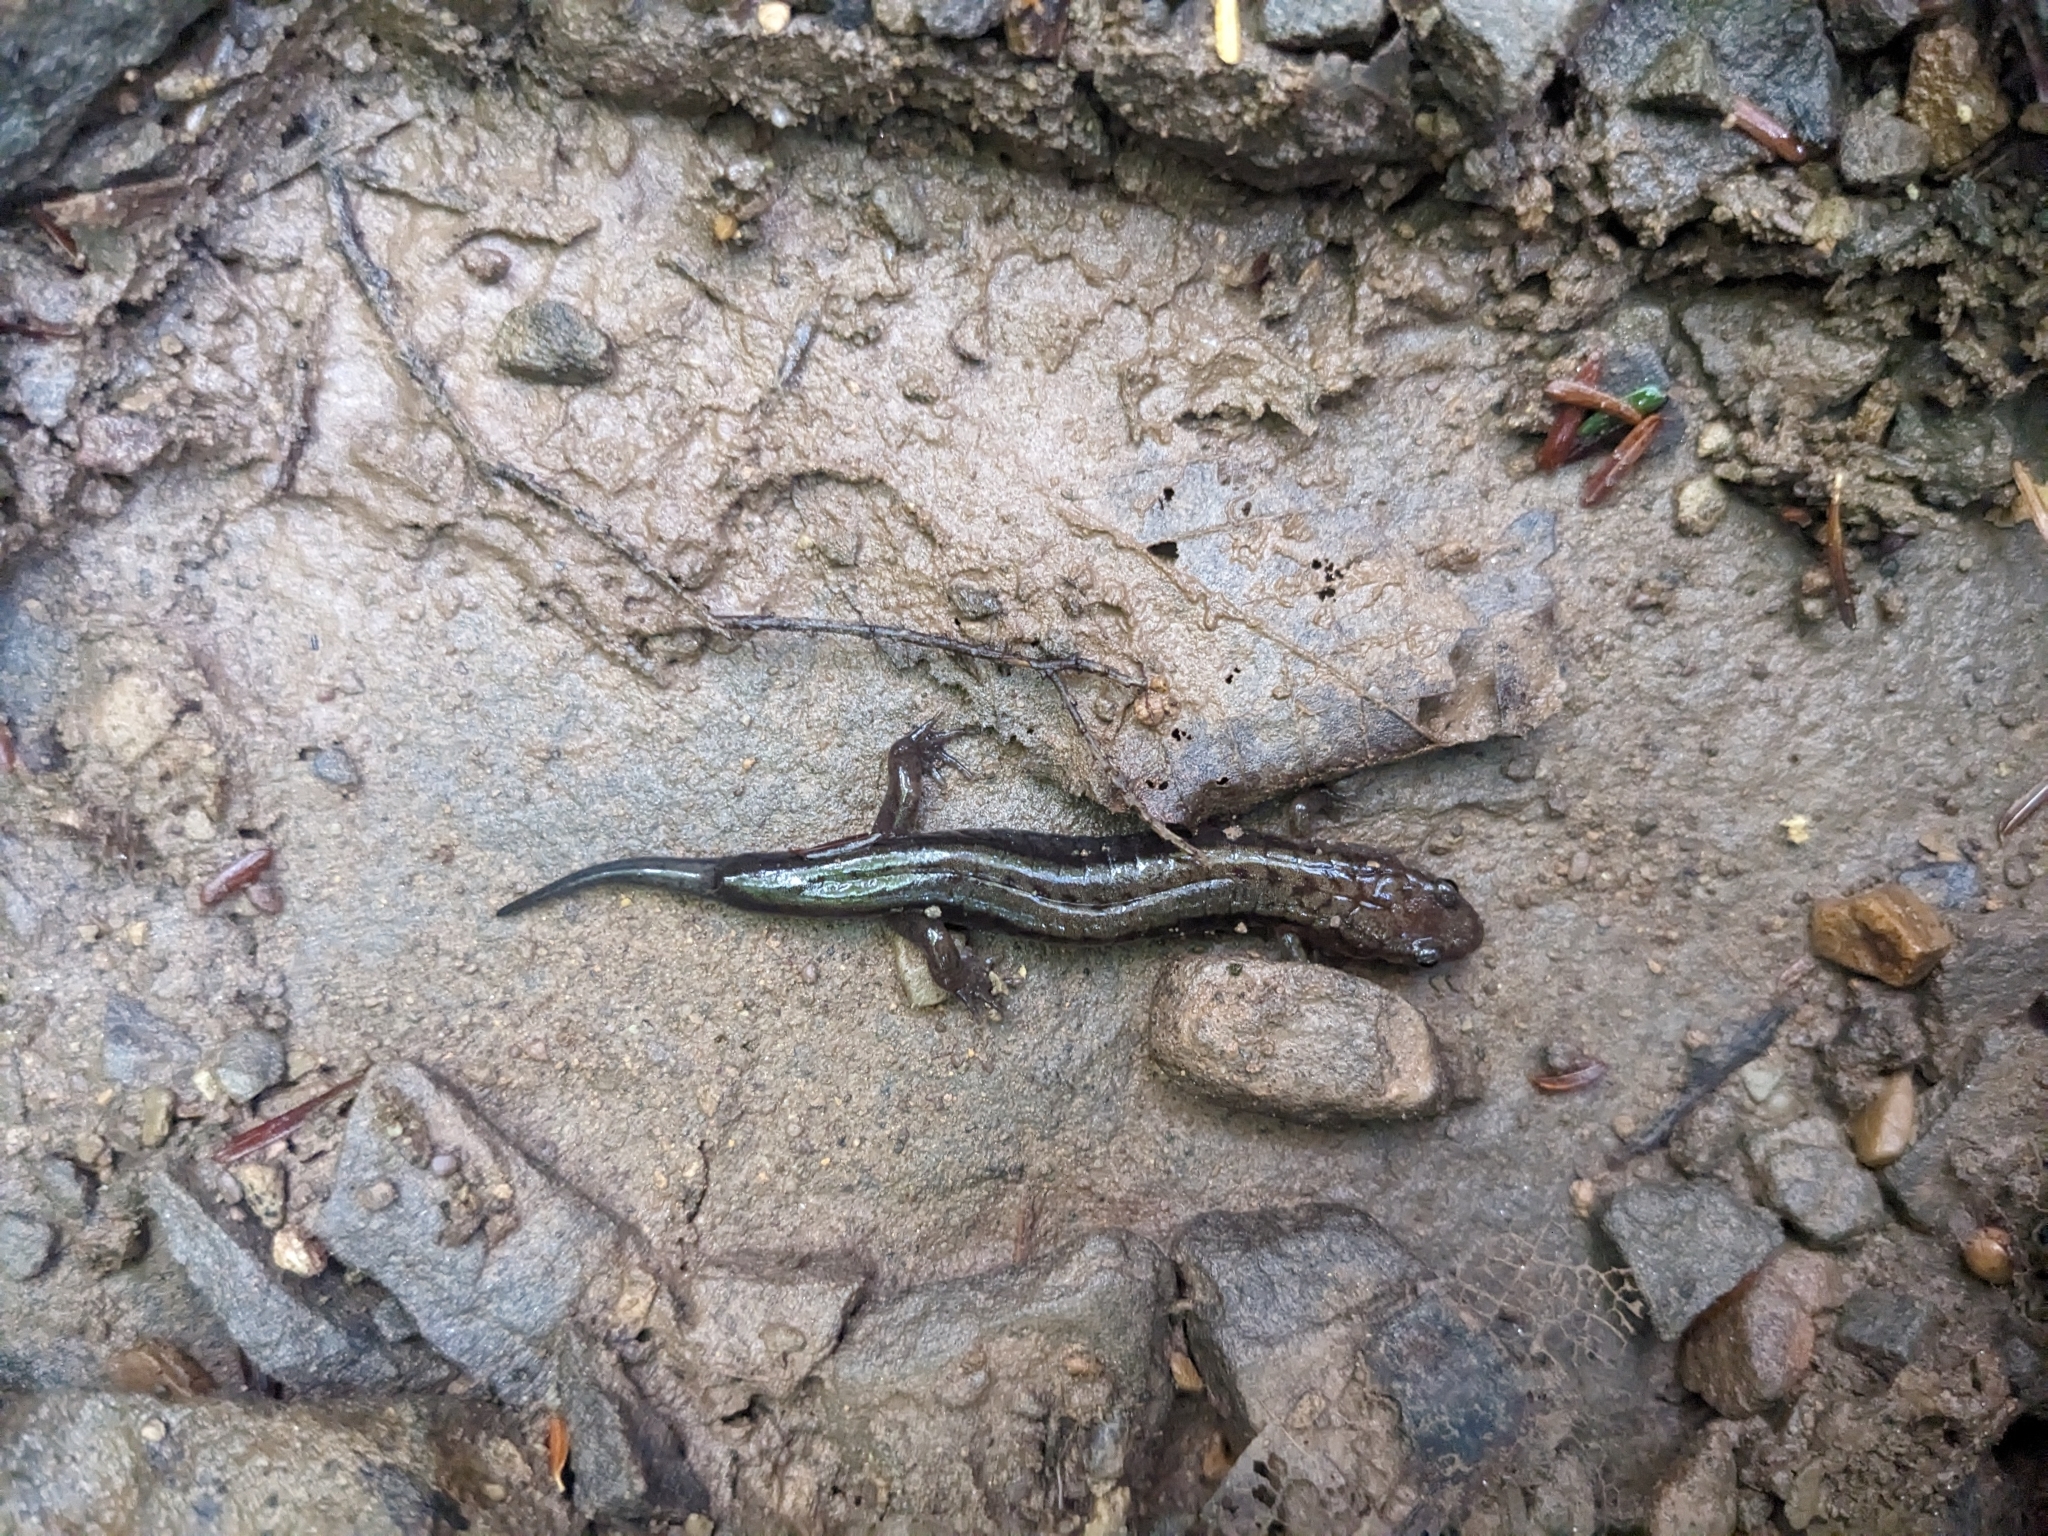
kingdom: Animalia
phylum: Chordata
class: Amphibia
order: Caudata
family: Plethodontidae
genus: Desmognathus
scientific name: Desmognathus ochrophaeus
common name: Allegheny mountain dusky salamander
